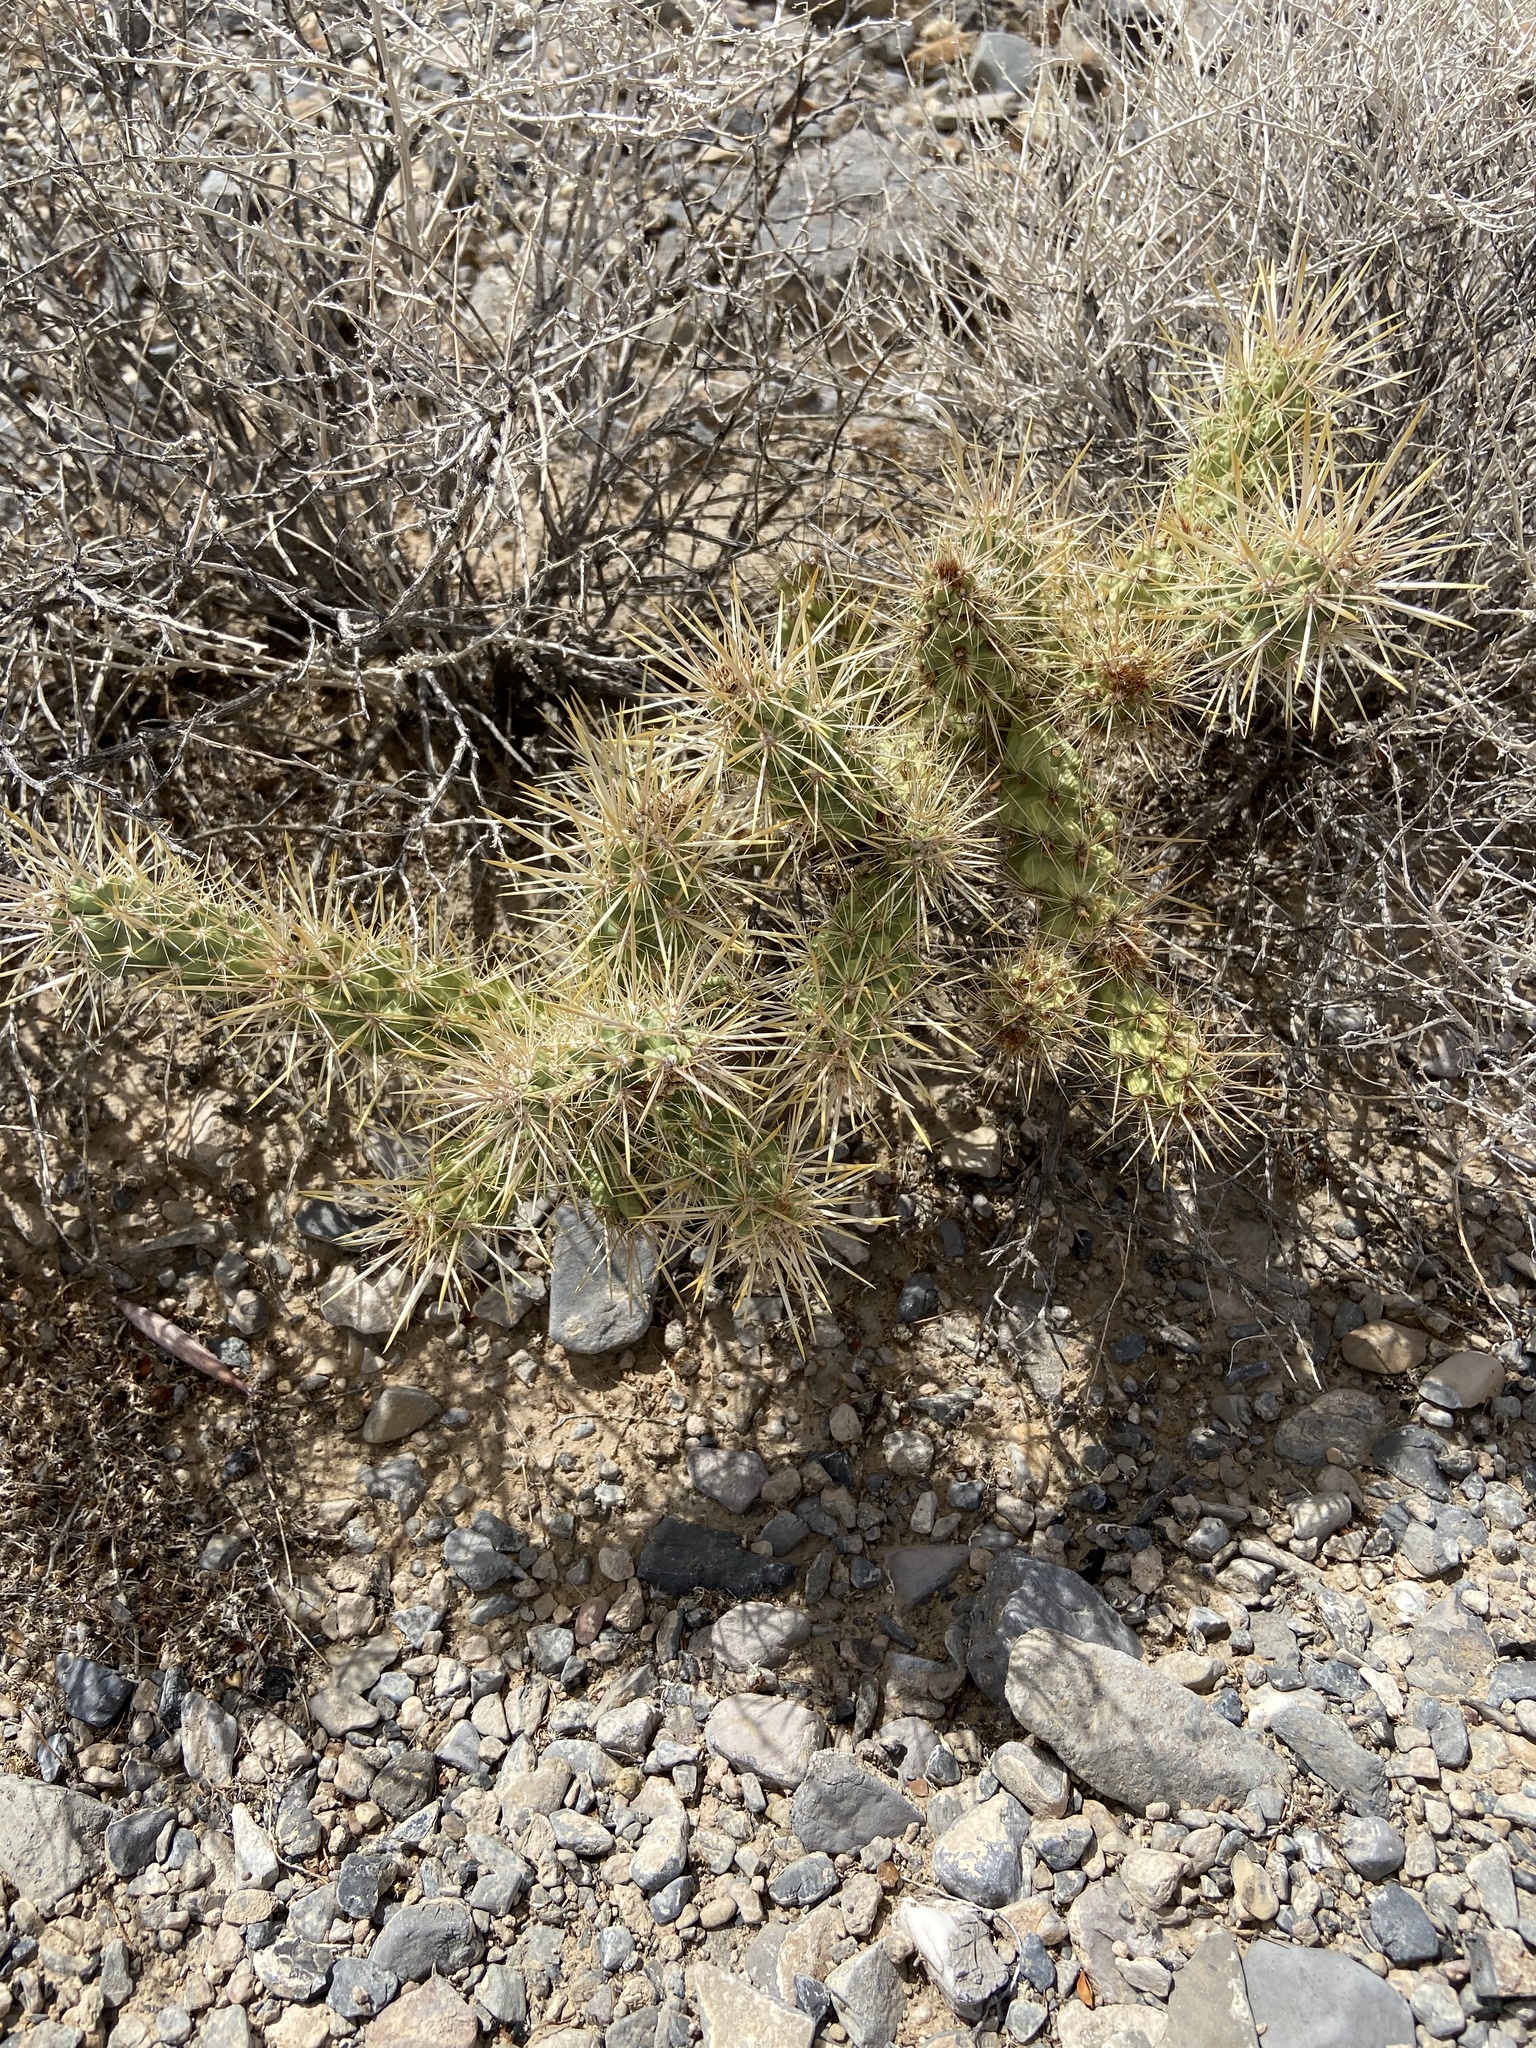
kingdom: Plantae
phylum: Tracheophyta
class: Magnoliopsida
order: Caryophyllales
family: Cactaceae
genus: Cylindropuntia
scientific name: Cylindropuntia echinocarpa
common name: Ground cholla
